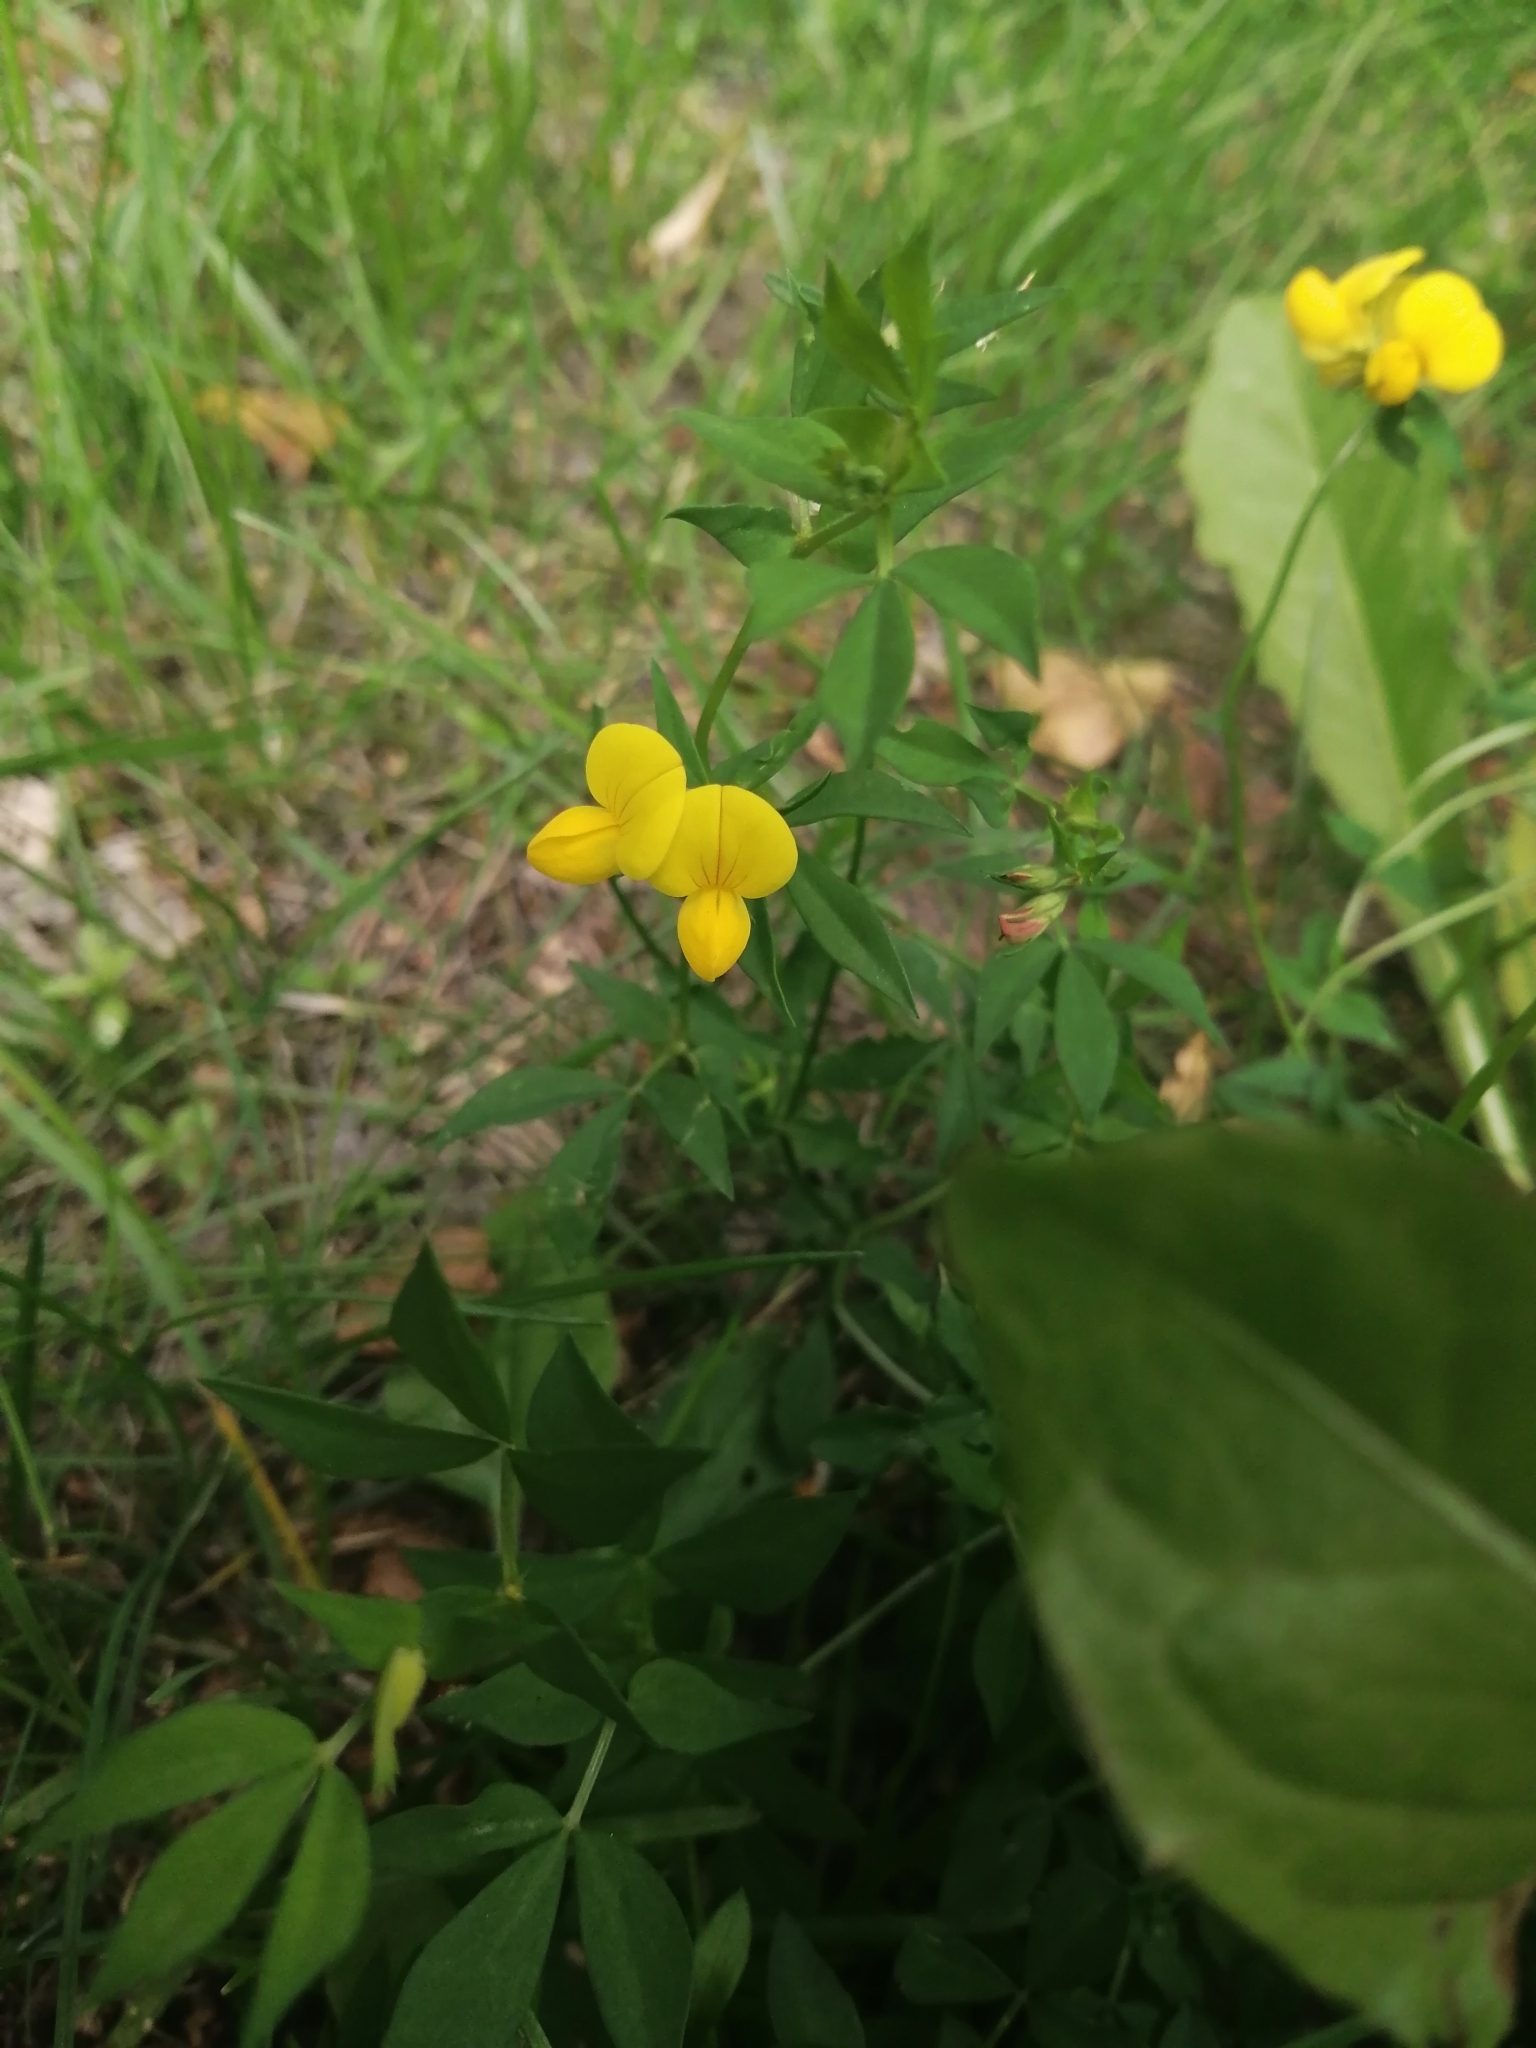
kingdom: Plantae
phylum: Tracheophyta
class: Magnoliopsida
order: Fabales
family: Fabaceae
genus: Lotus
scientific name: Lotus corniculatus
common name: Common bird's-foot-trefoil
